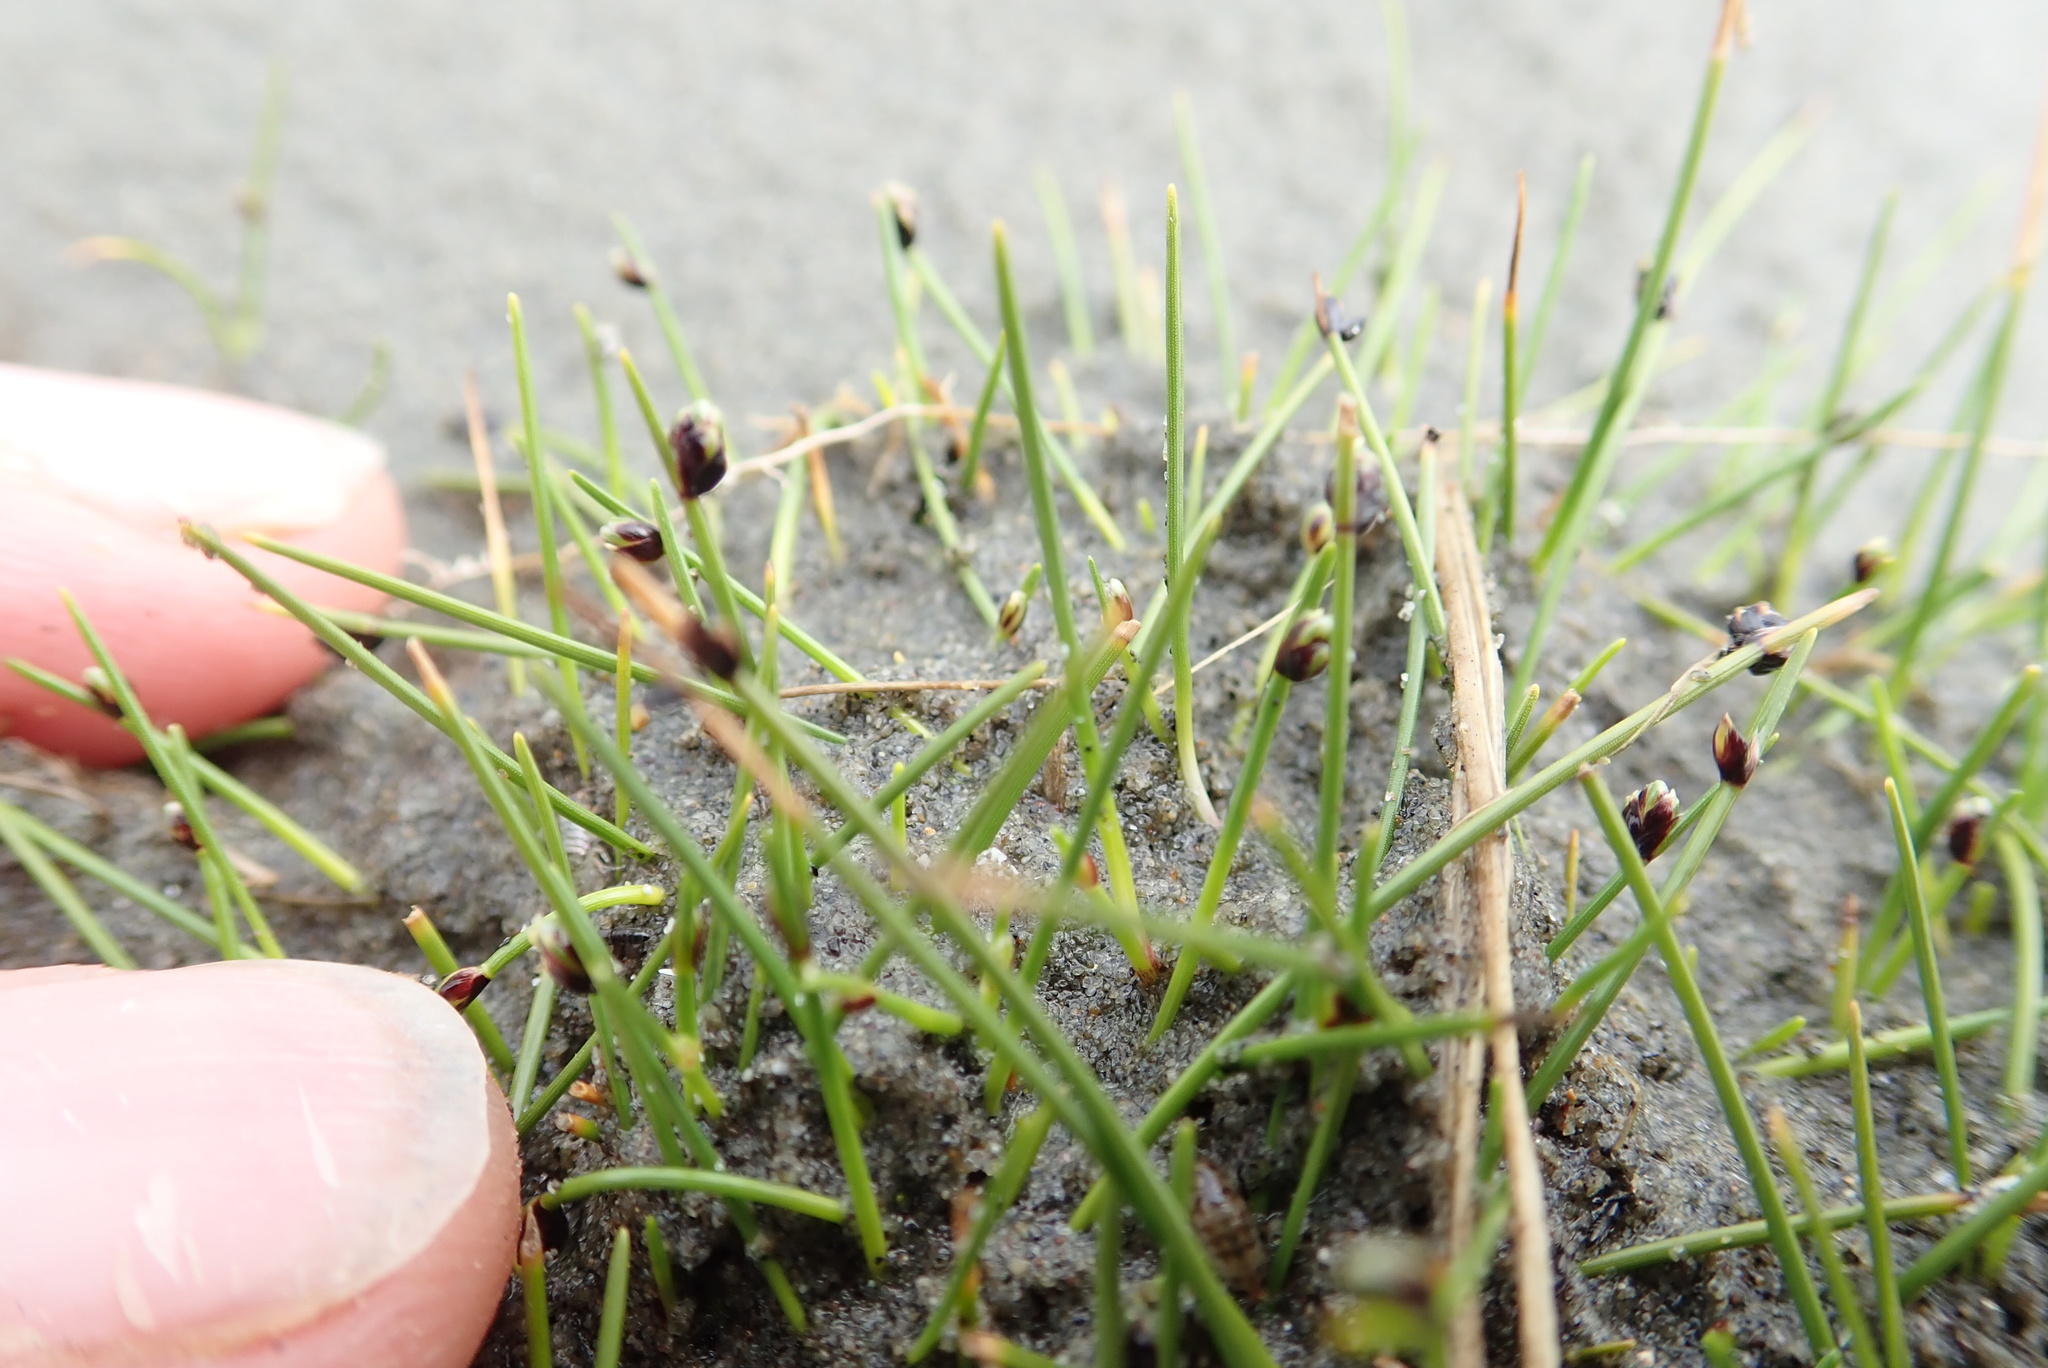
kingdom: Plantae
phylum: Tracheophyta
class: Liliopsida
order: Poales
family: Cyperaceae
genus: Isolepis
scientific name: Isolepis cernua
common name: Slender club-rush
